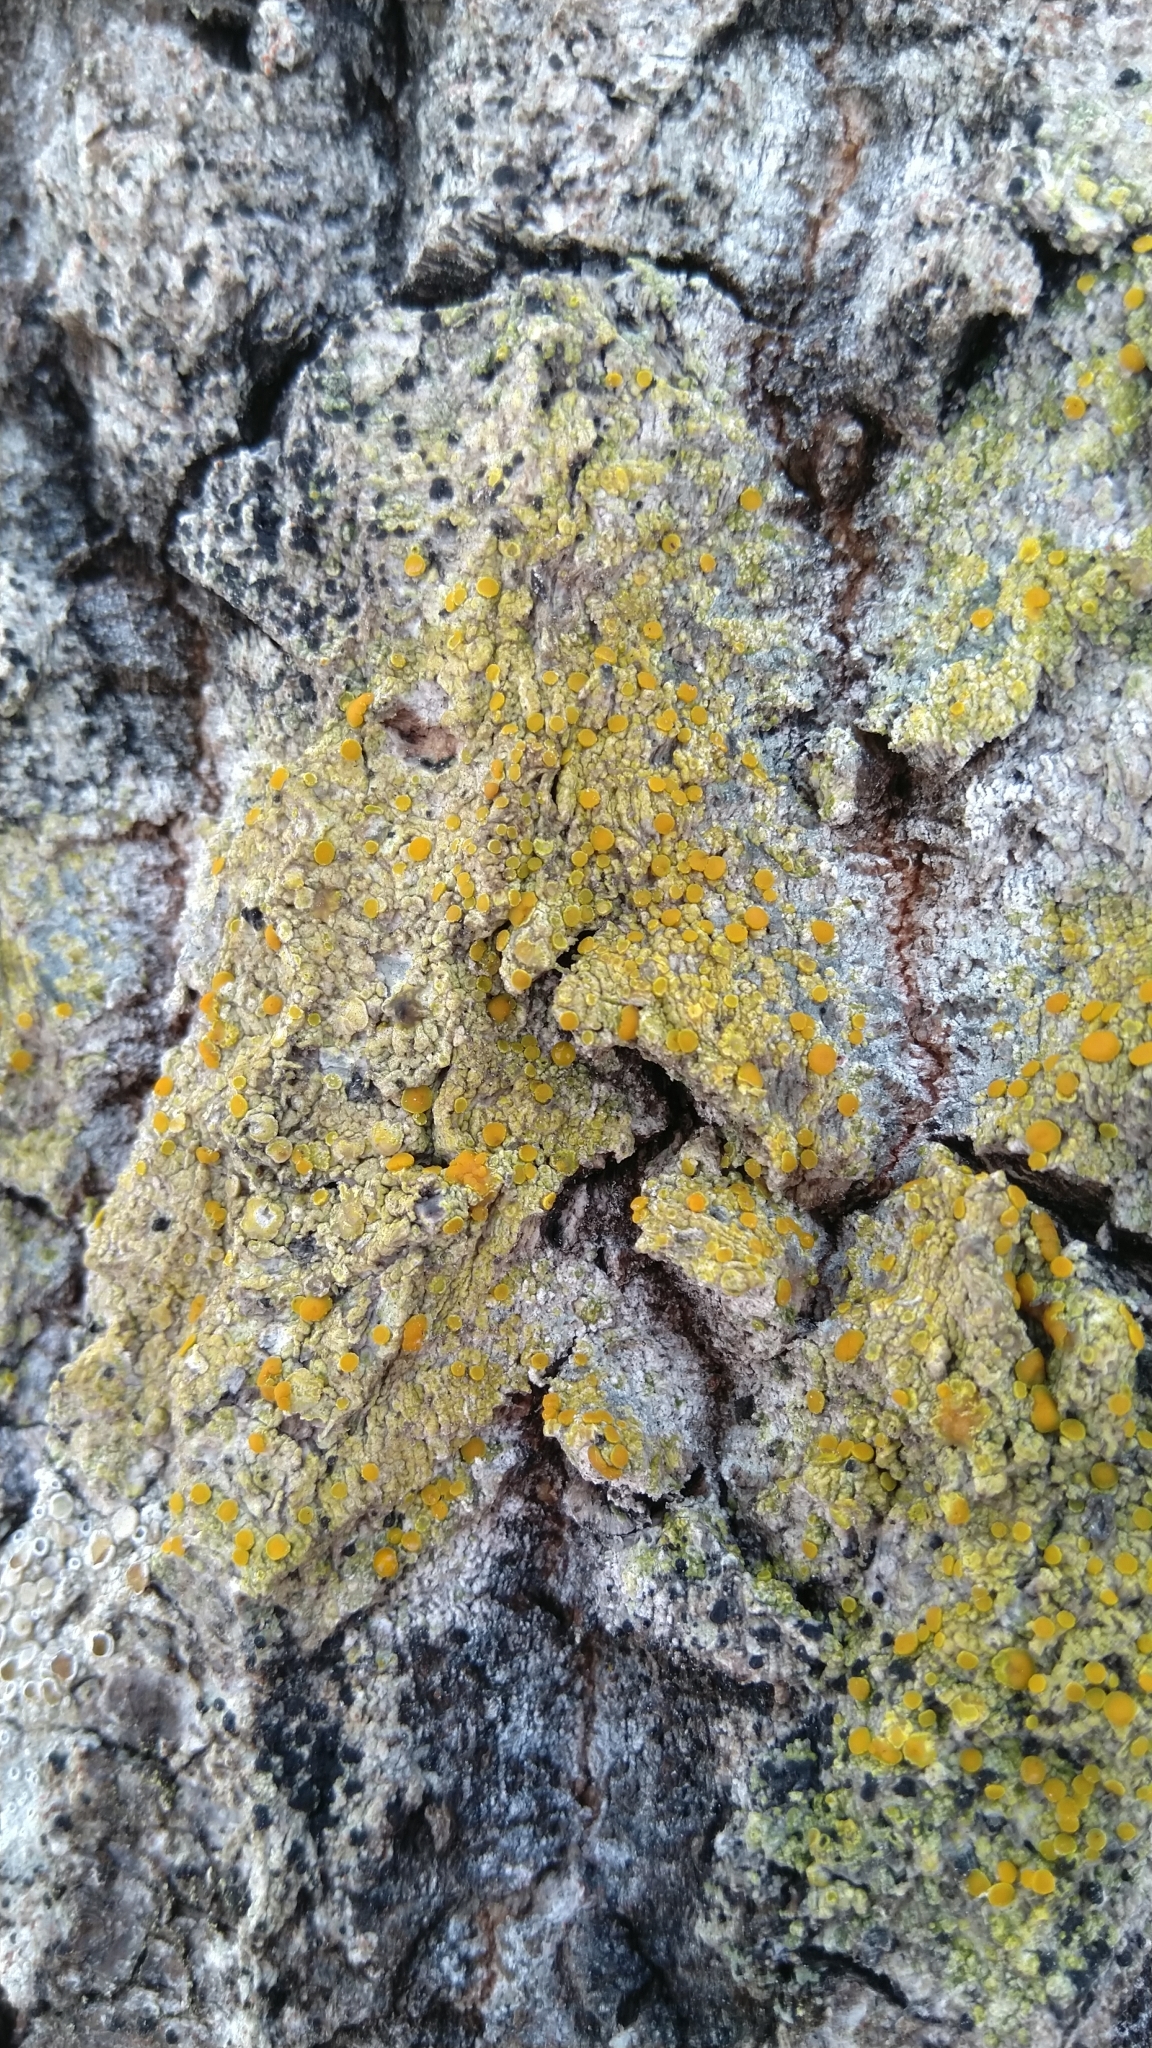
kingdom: Fungi
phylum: Ascomycota
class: Lecanoromycetes
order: Teloschistales
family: Teloschistaceae
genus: Opeltia
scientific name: Opeltia flavorubescens
